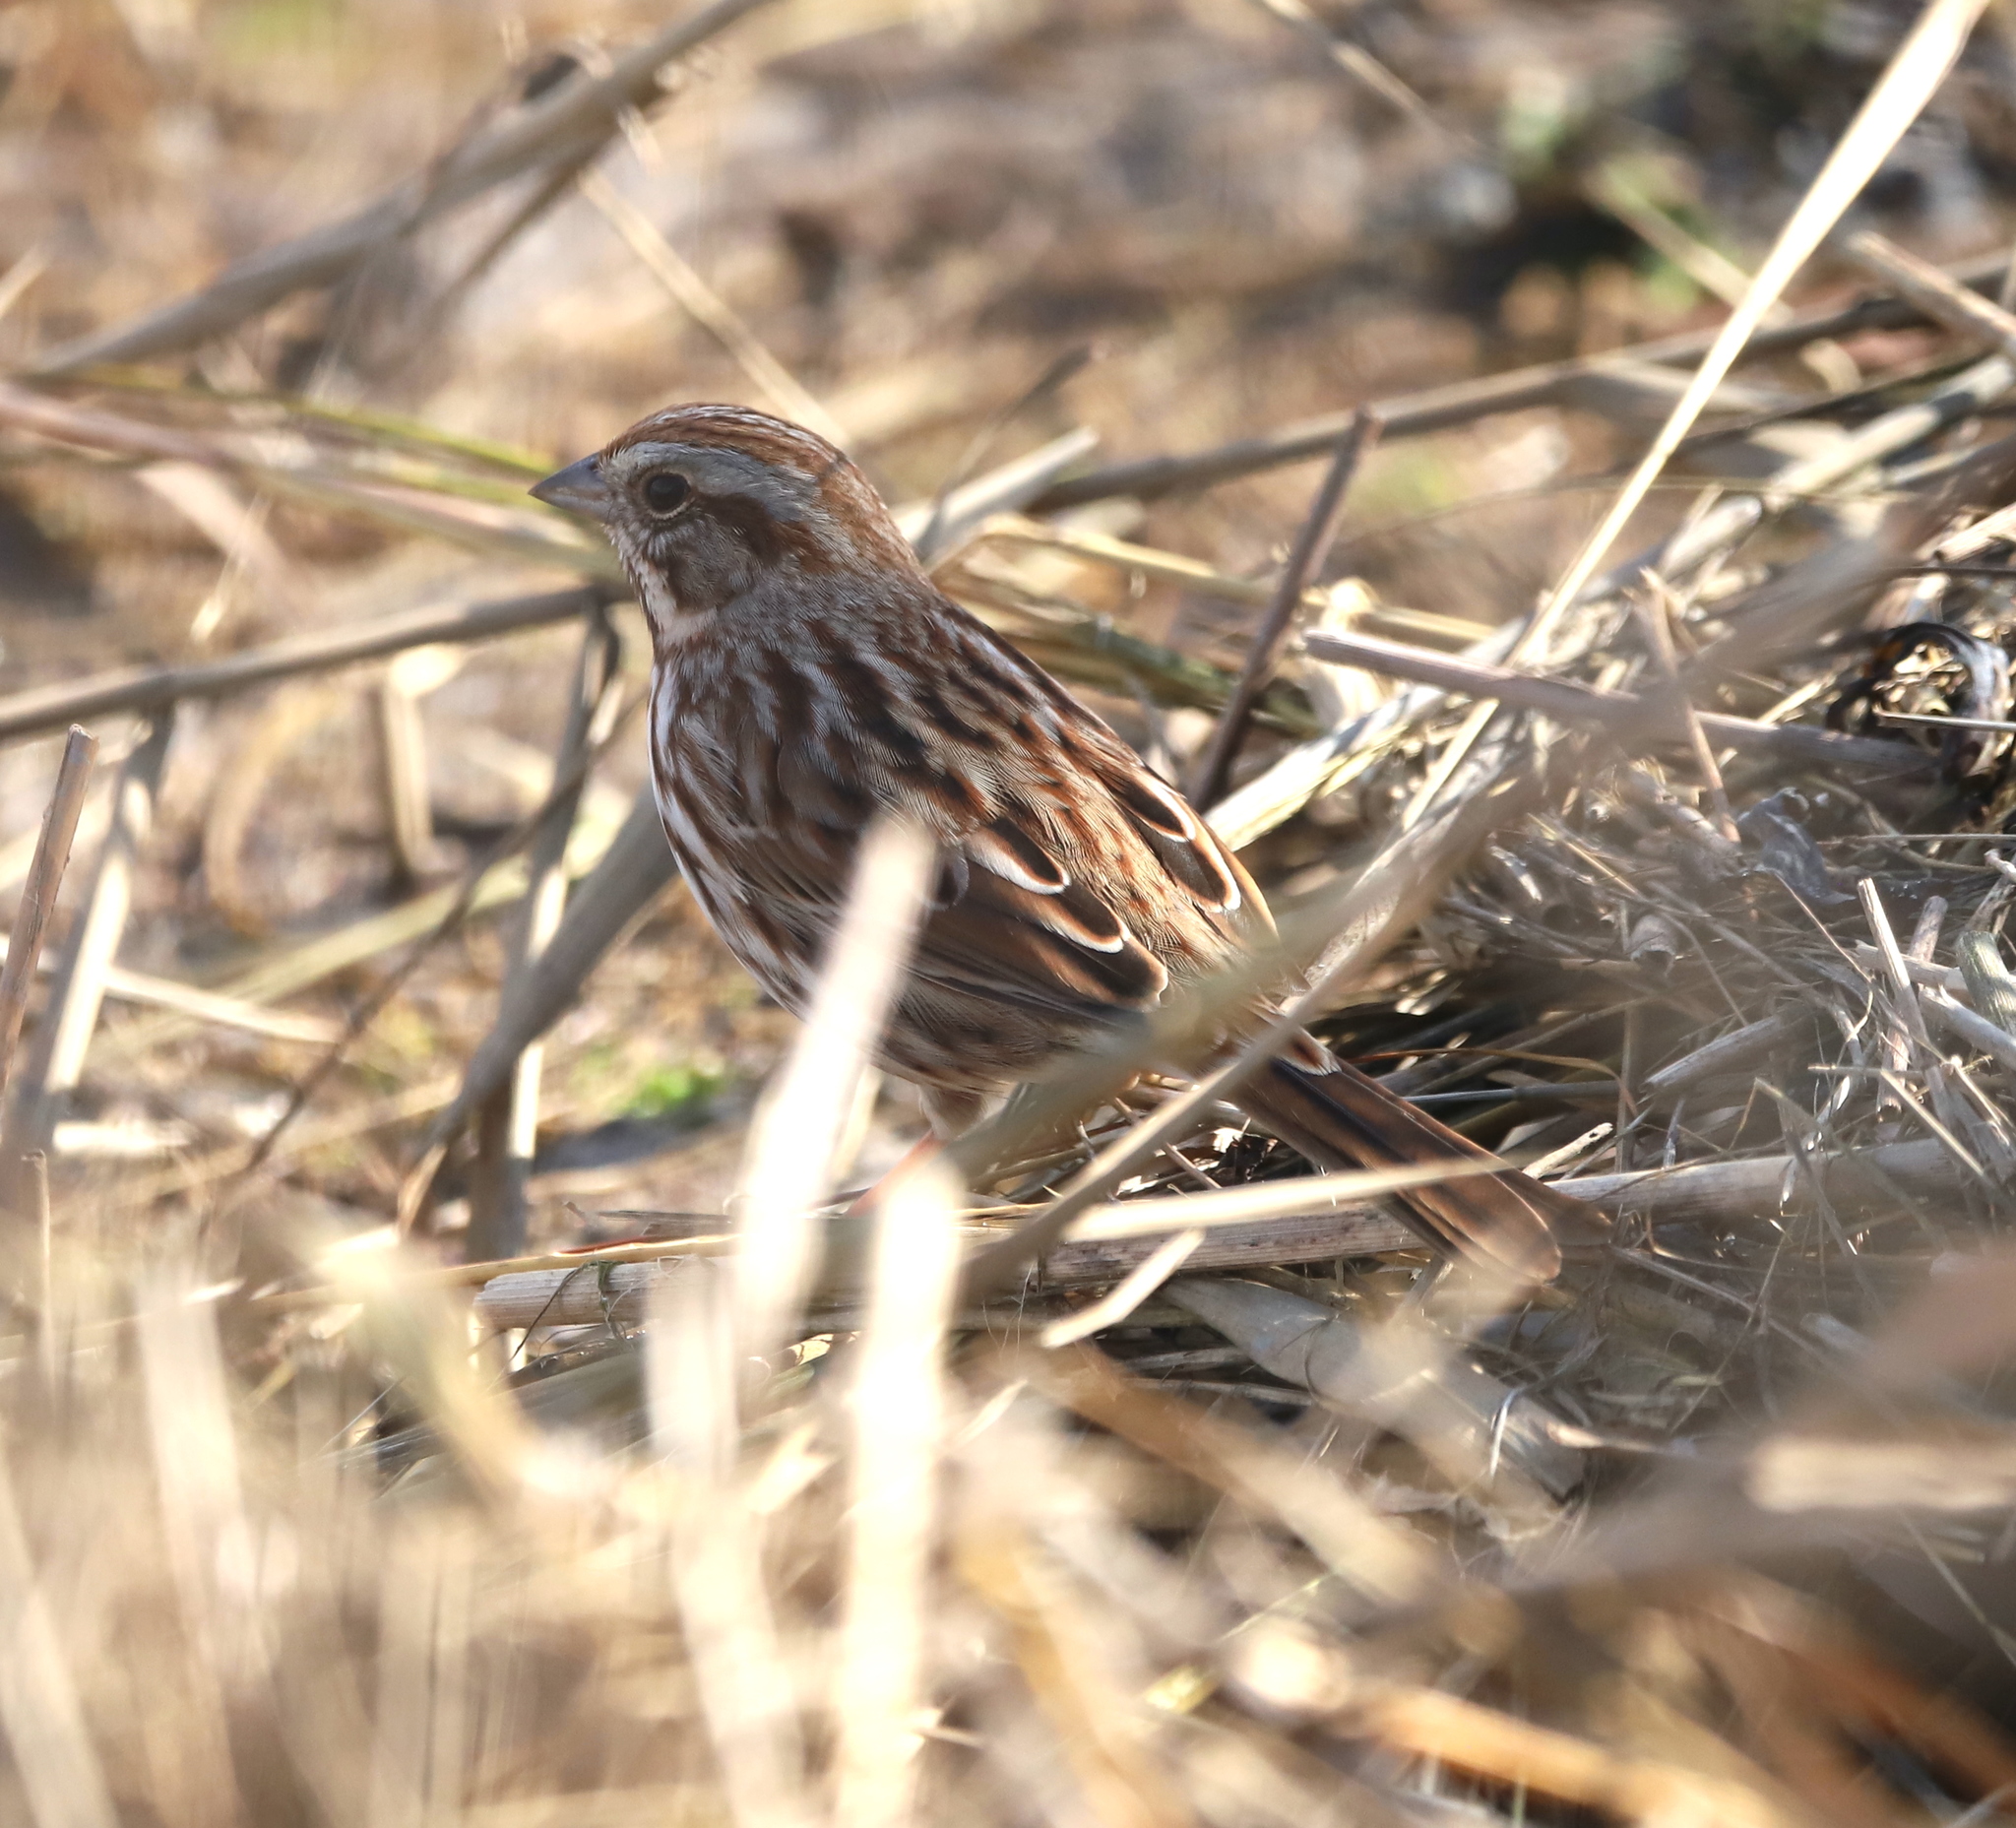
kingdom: Animalia
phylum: Chordata
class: Aves
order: Passeriformes
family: Passerellidae
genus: Melospiza
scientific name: Melospiza melodia
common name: Song sparrow
